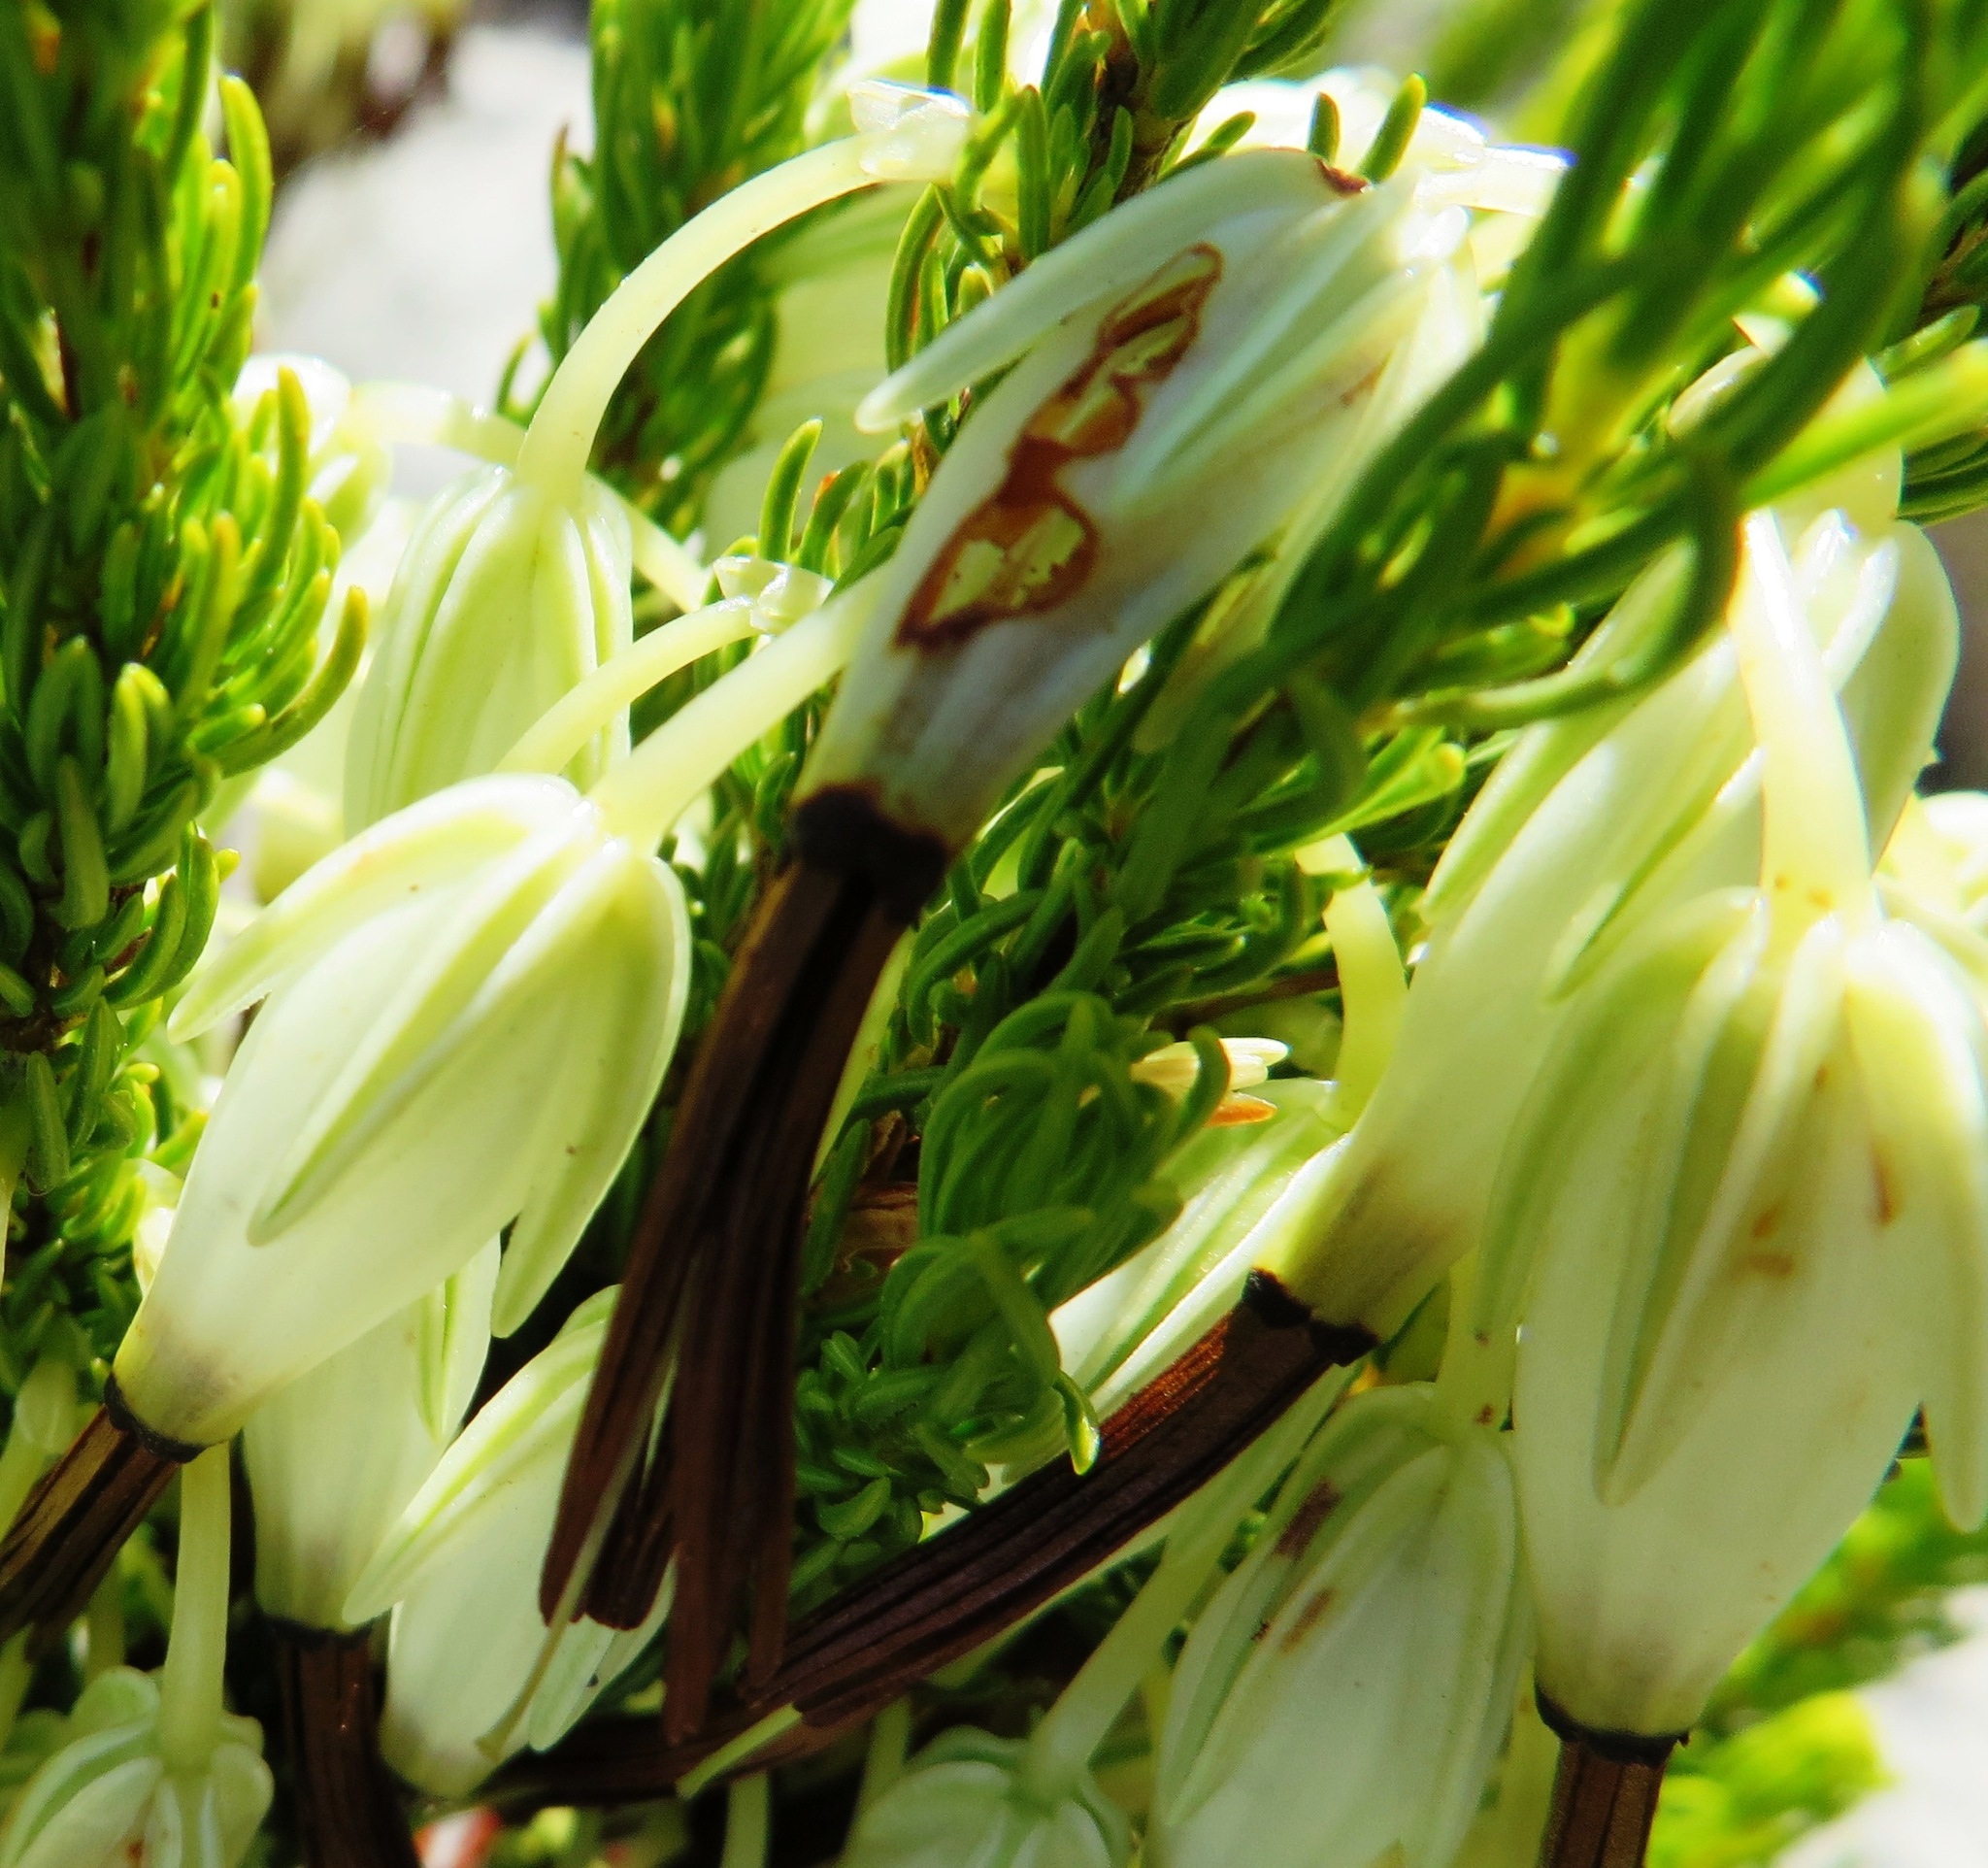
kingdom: Plantae
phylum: Tracheophyta
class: Magnoliopsida
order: Ericales
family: Ericaceae
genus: Erica
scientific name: Erica plukenetii
